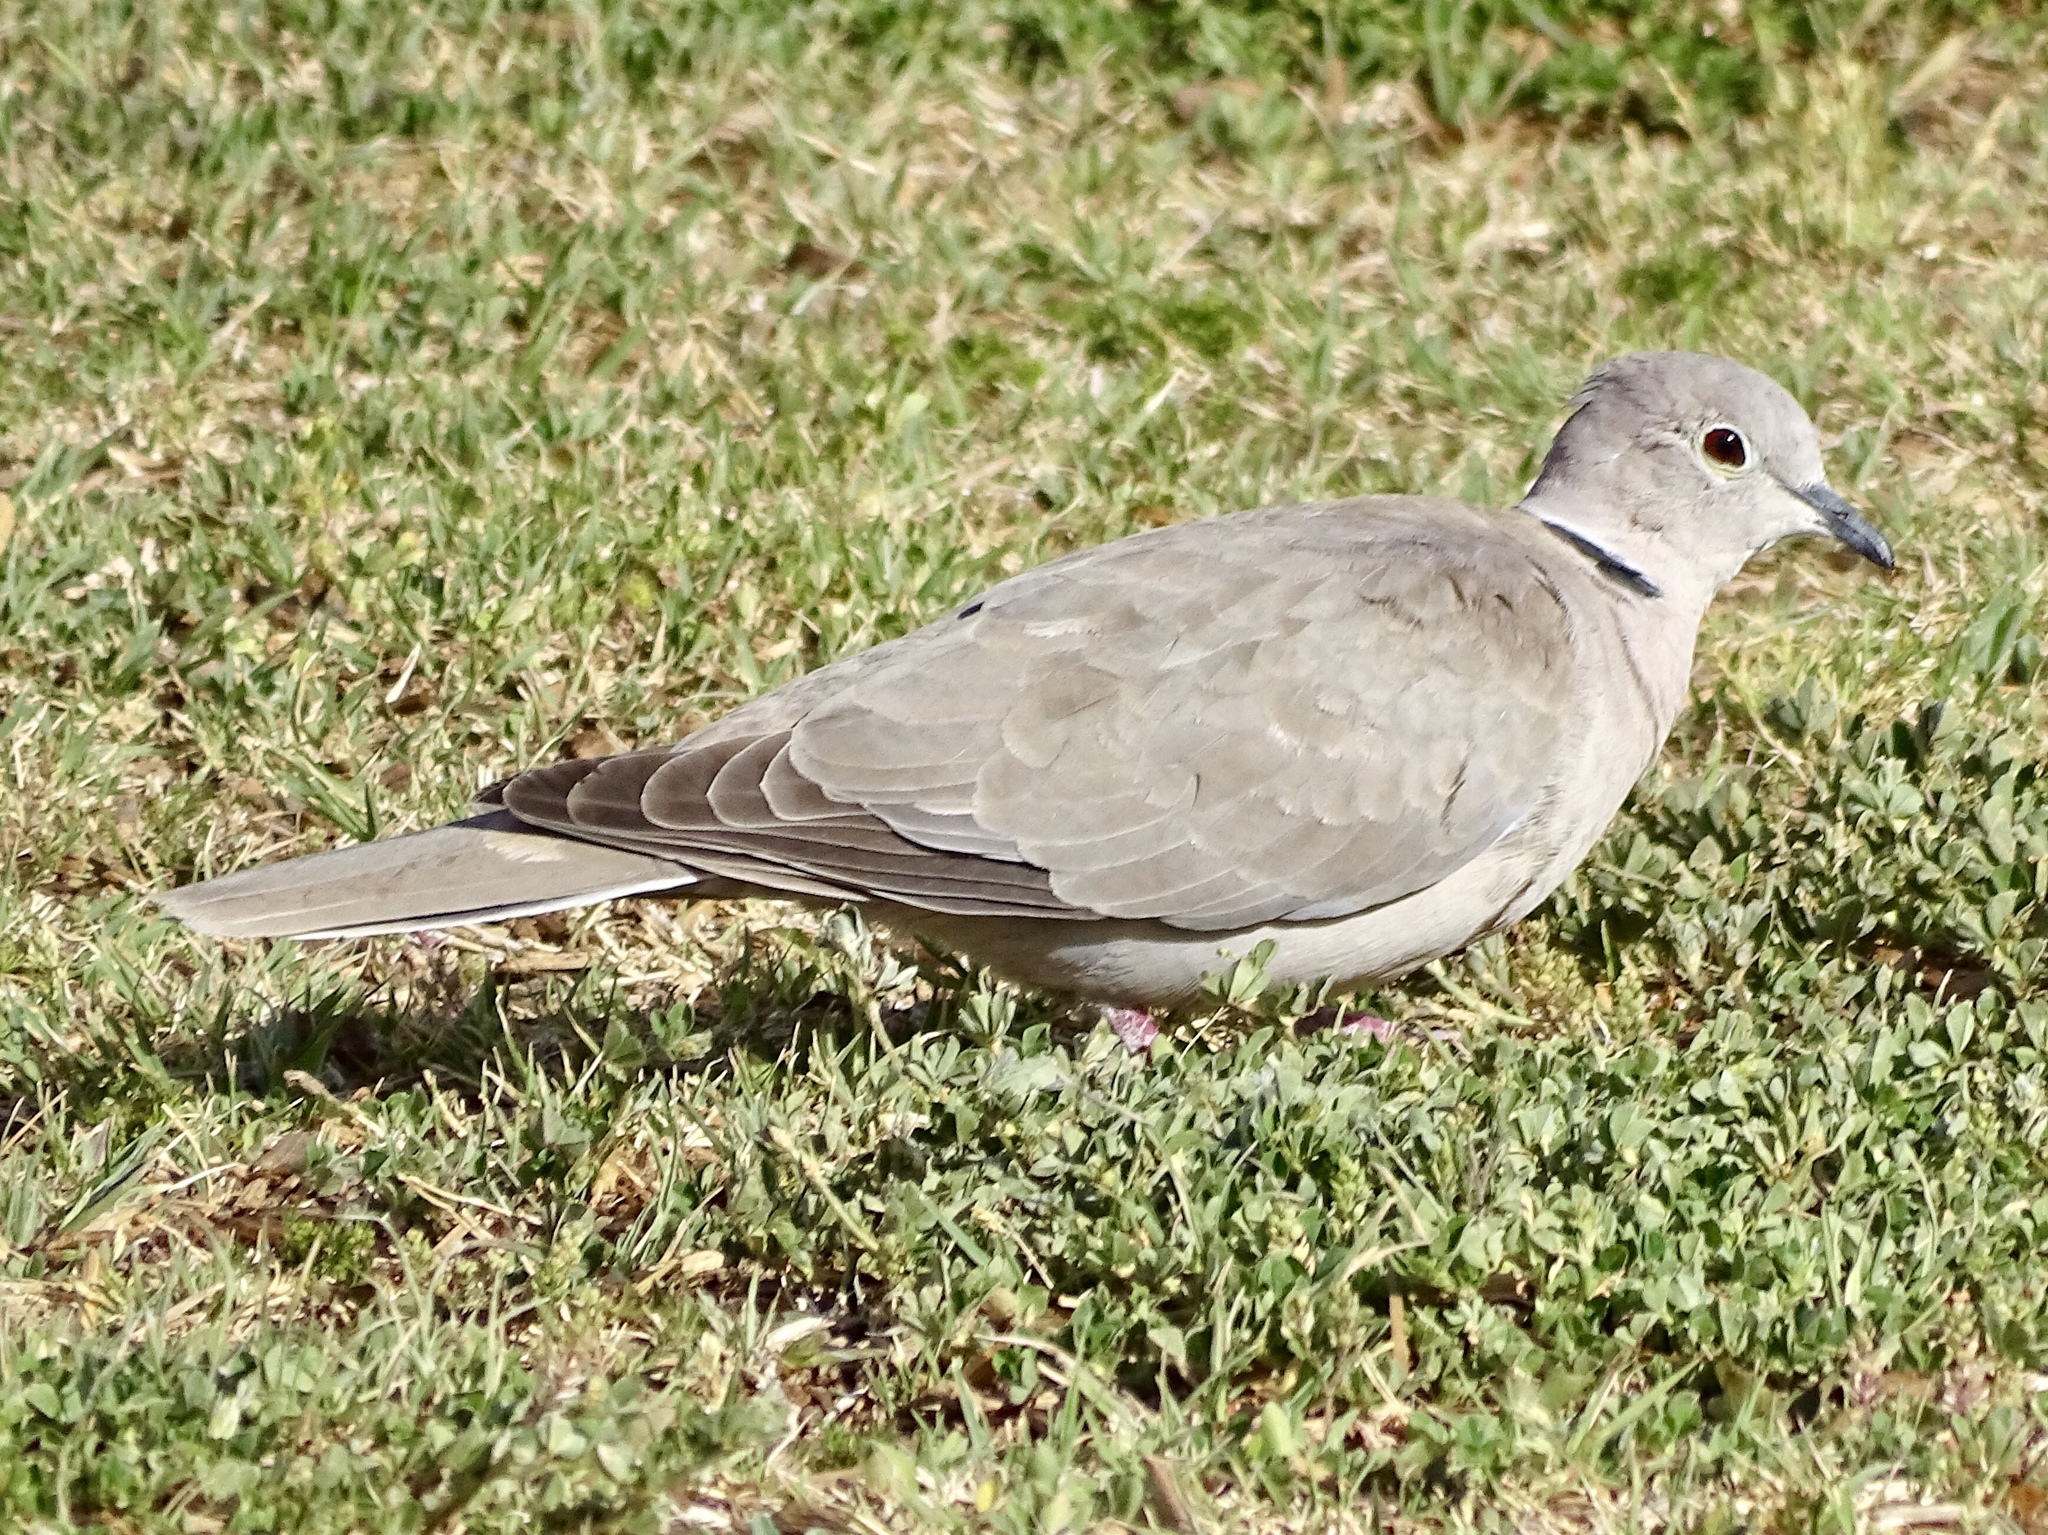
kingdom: Animalia
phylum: Chordata
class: Aves
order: Columbiformes
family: Columbidae
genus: Streptopelia
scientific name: Streptopelia decaocto
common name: Eurasian collared dove
